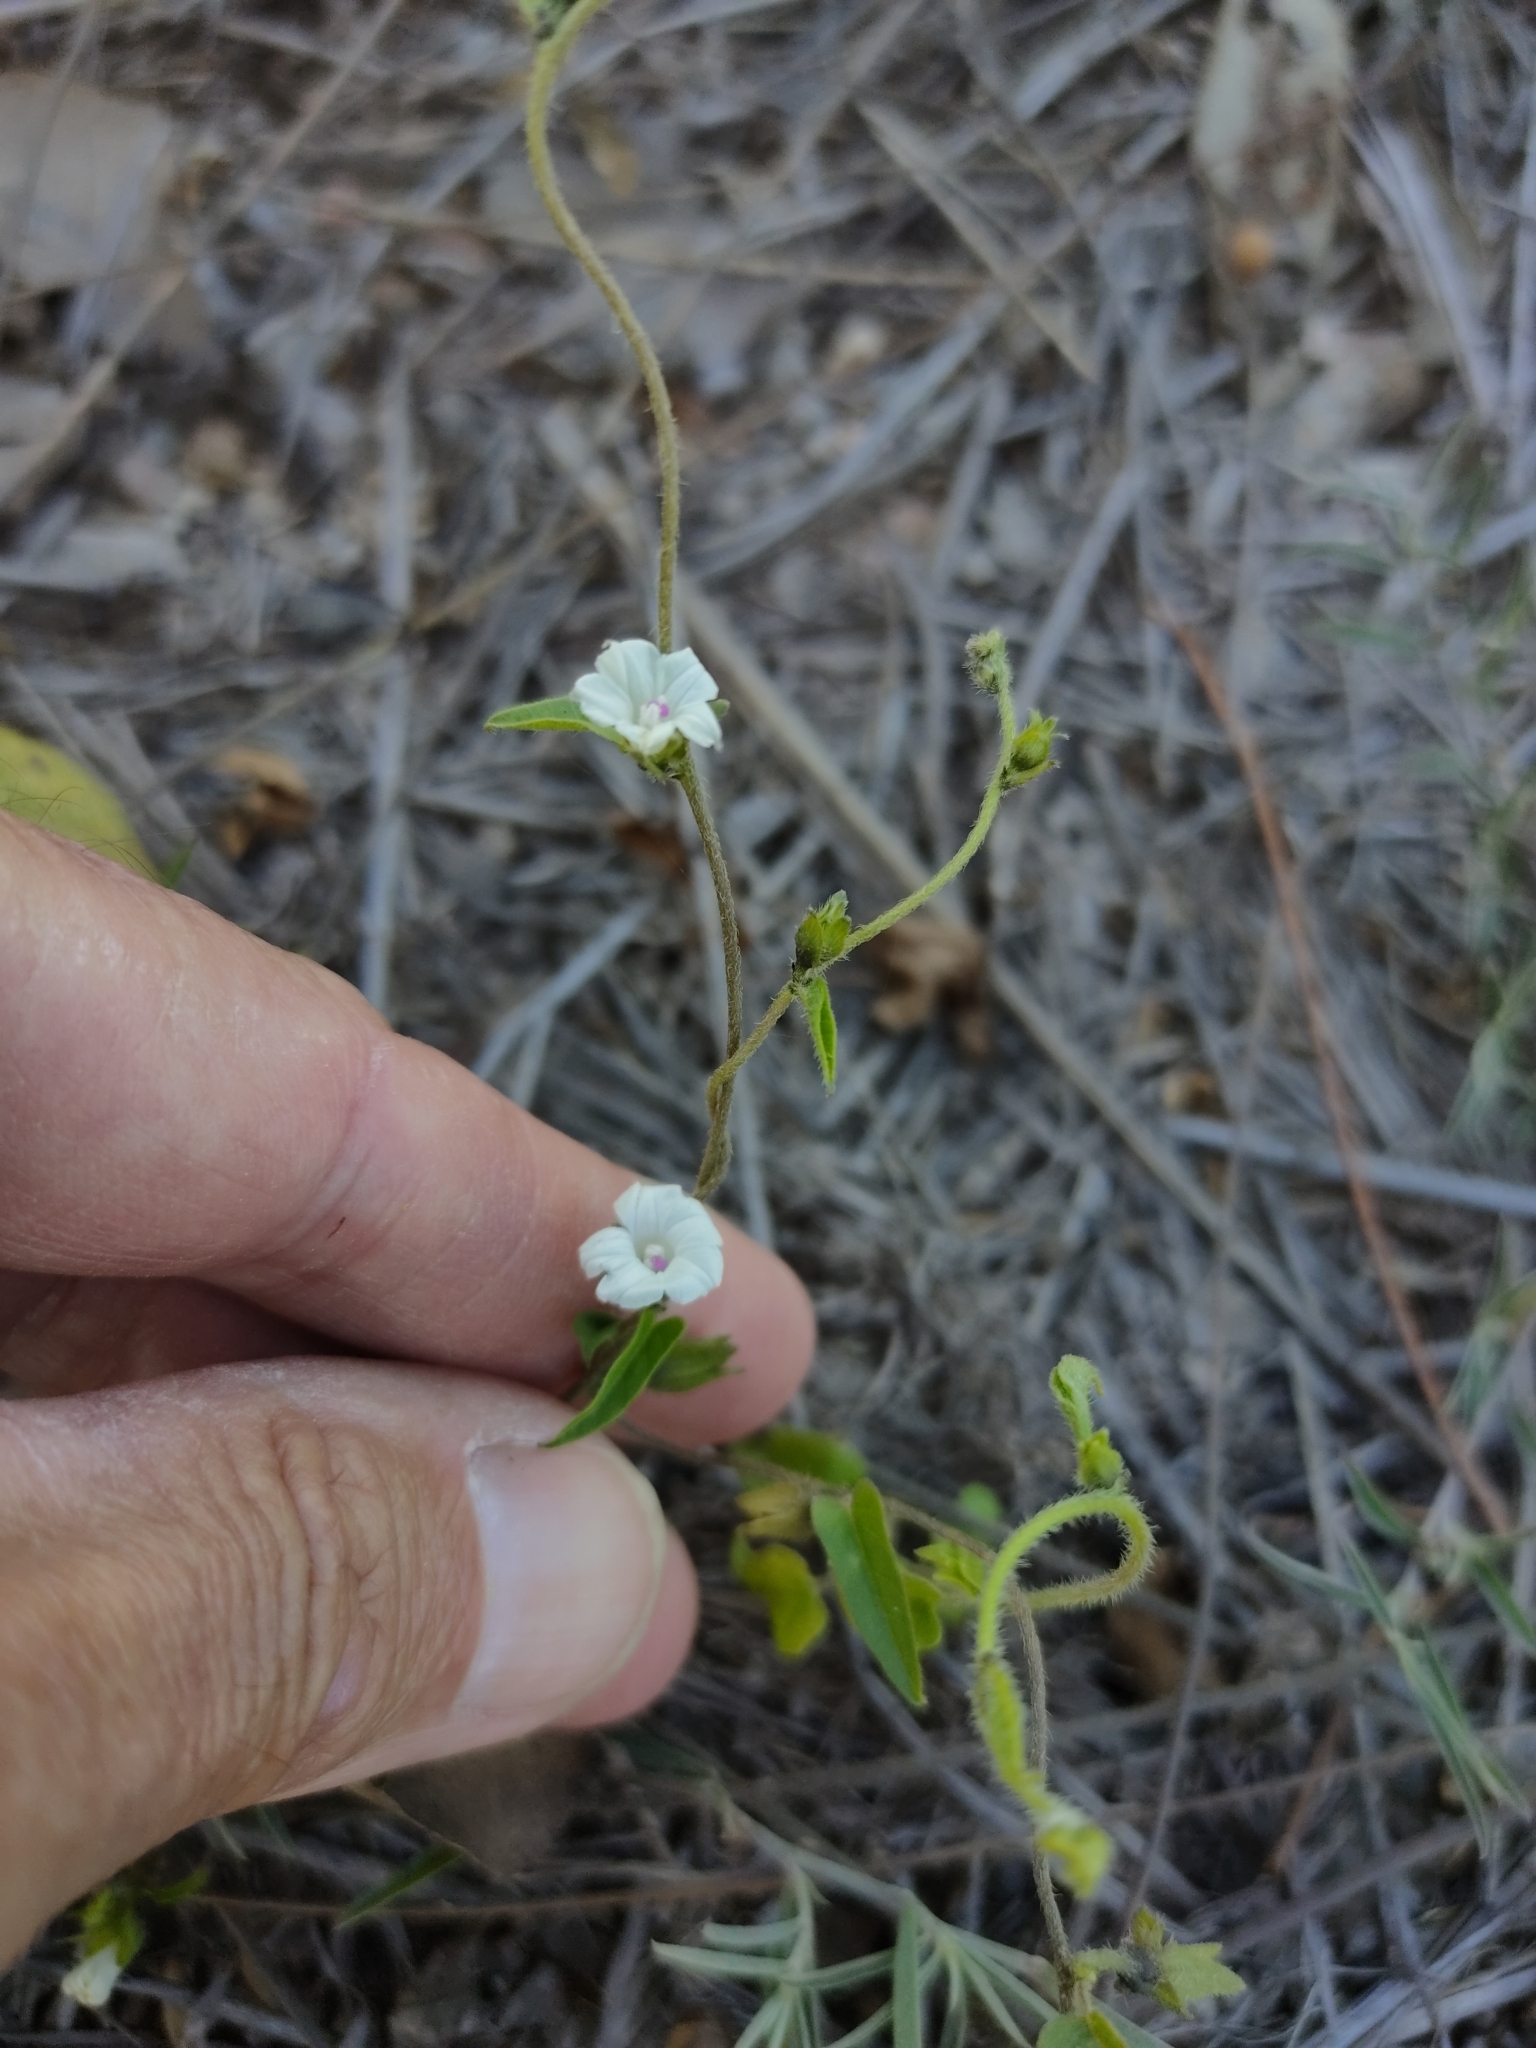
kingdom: Plantae
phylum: Tracheophyta
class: Magnoliopsida
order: Solanales
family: Convolvulaceae
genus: Ipomoea
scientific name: Ipomoea biflora
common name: Bellvine
